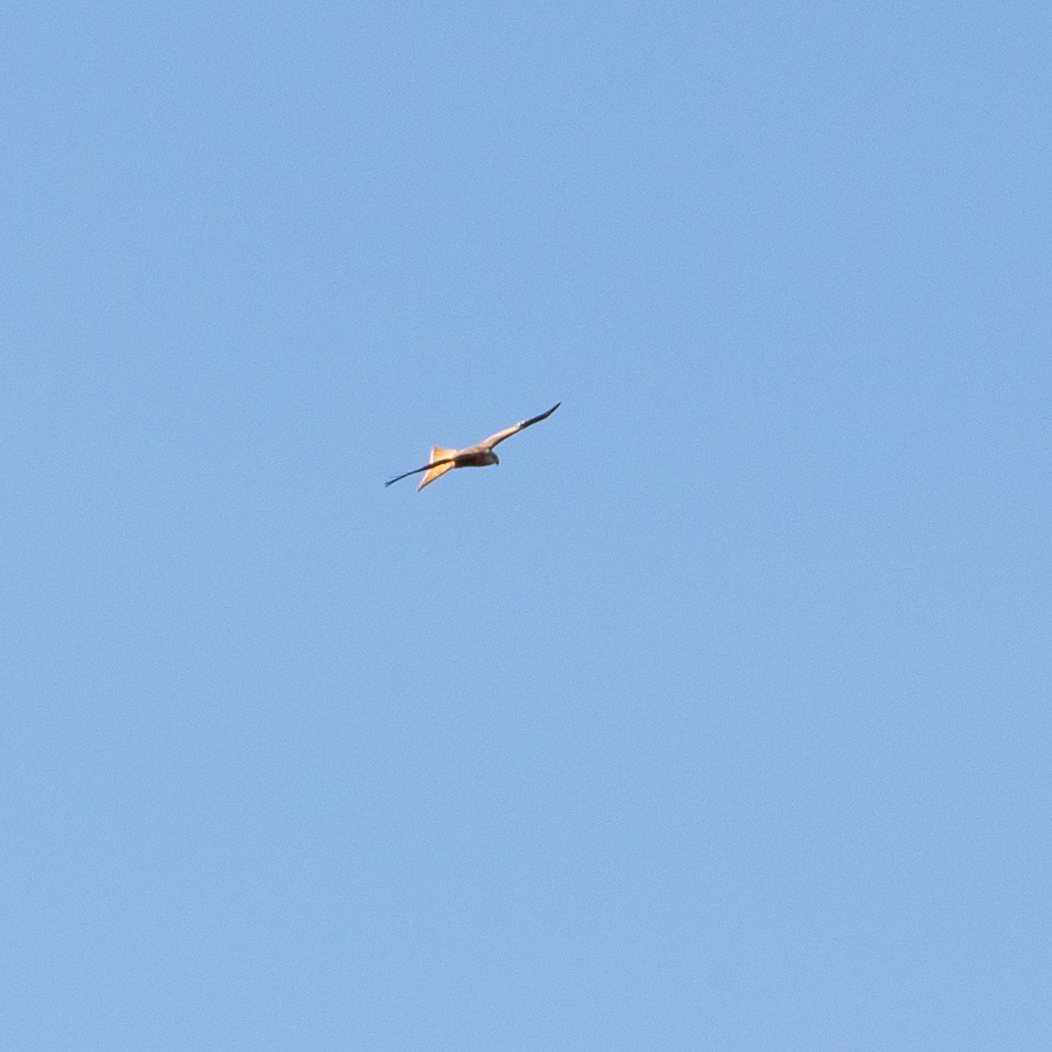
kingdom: Animalia
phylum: Chordata
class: Aves
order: Accipitriformes
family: Accipitridae
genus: Milvus
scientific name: Milvus milvus
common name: Red kite
